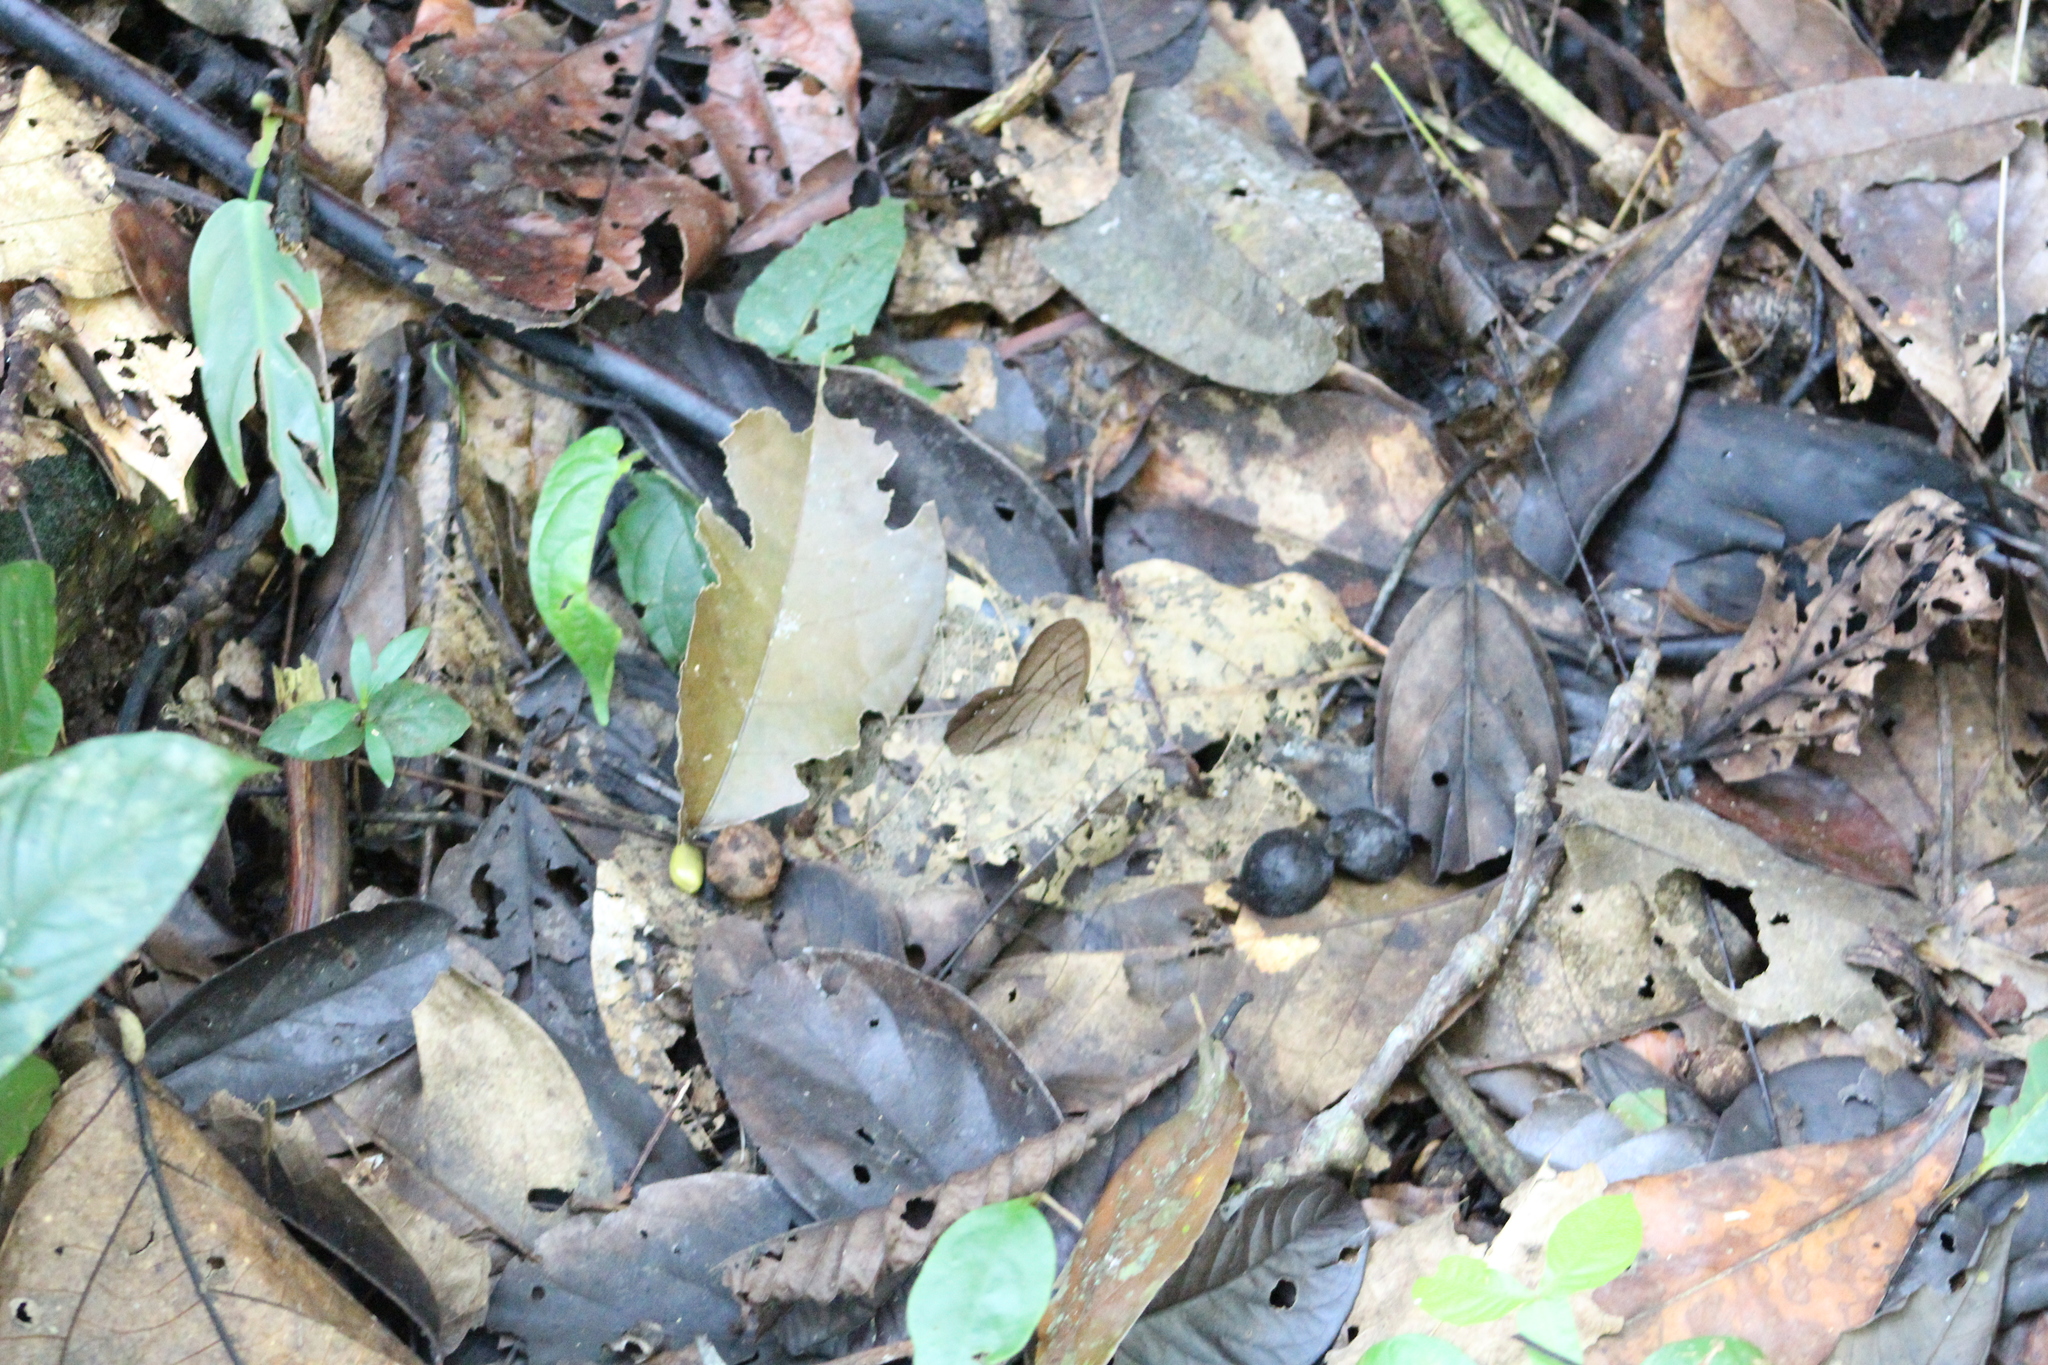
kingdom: Animalia
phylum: Arthropoda
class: Insecta
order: Lepidoptera
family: Nymphalidae
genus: Pierella
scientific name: Pierella rhea
